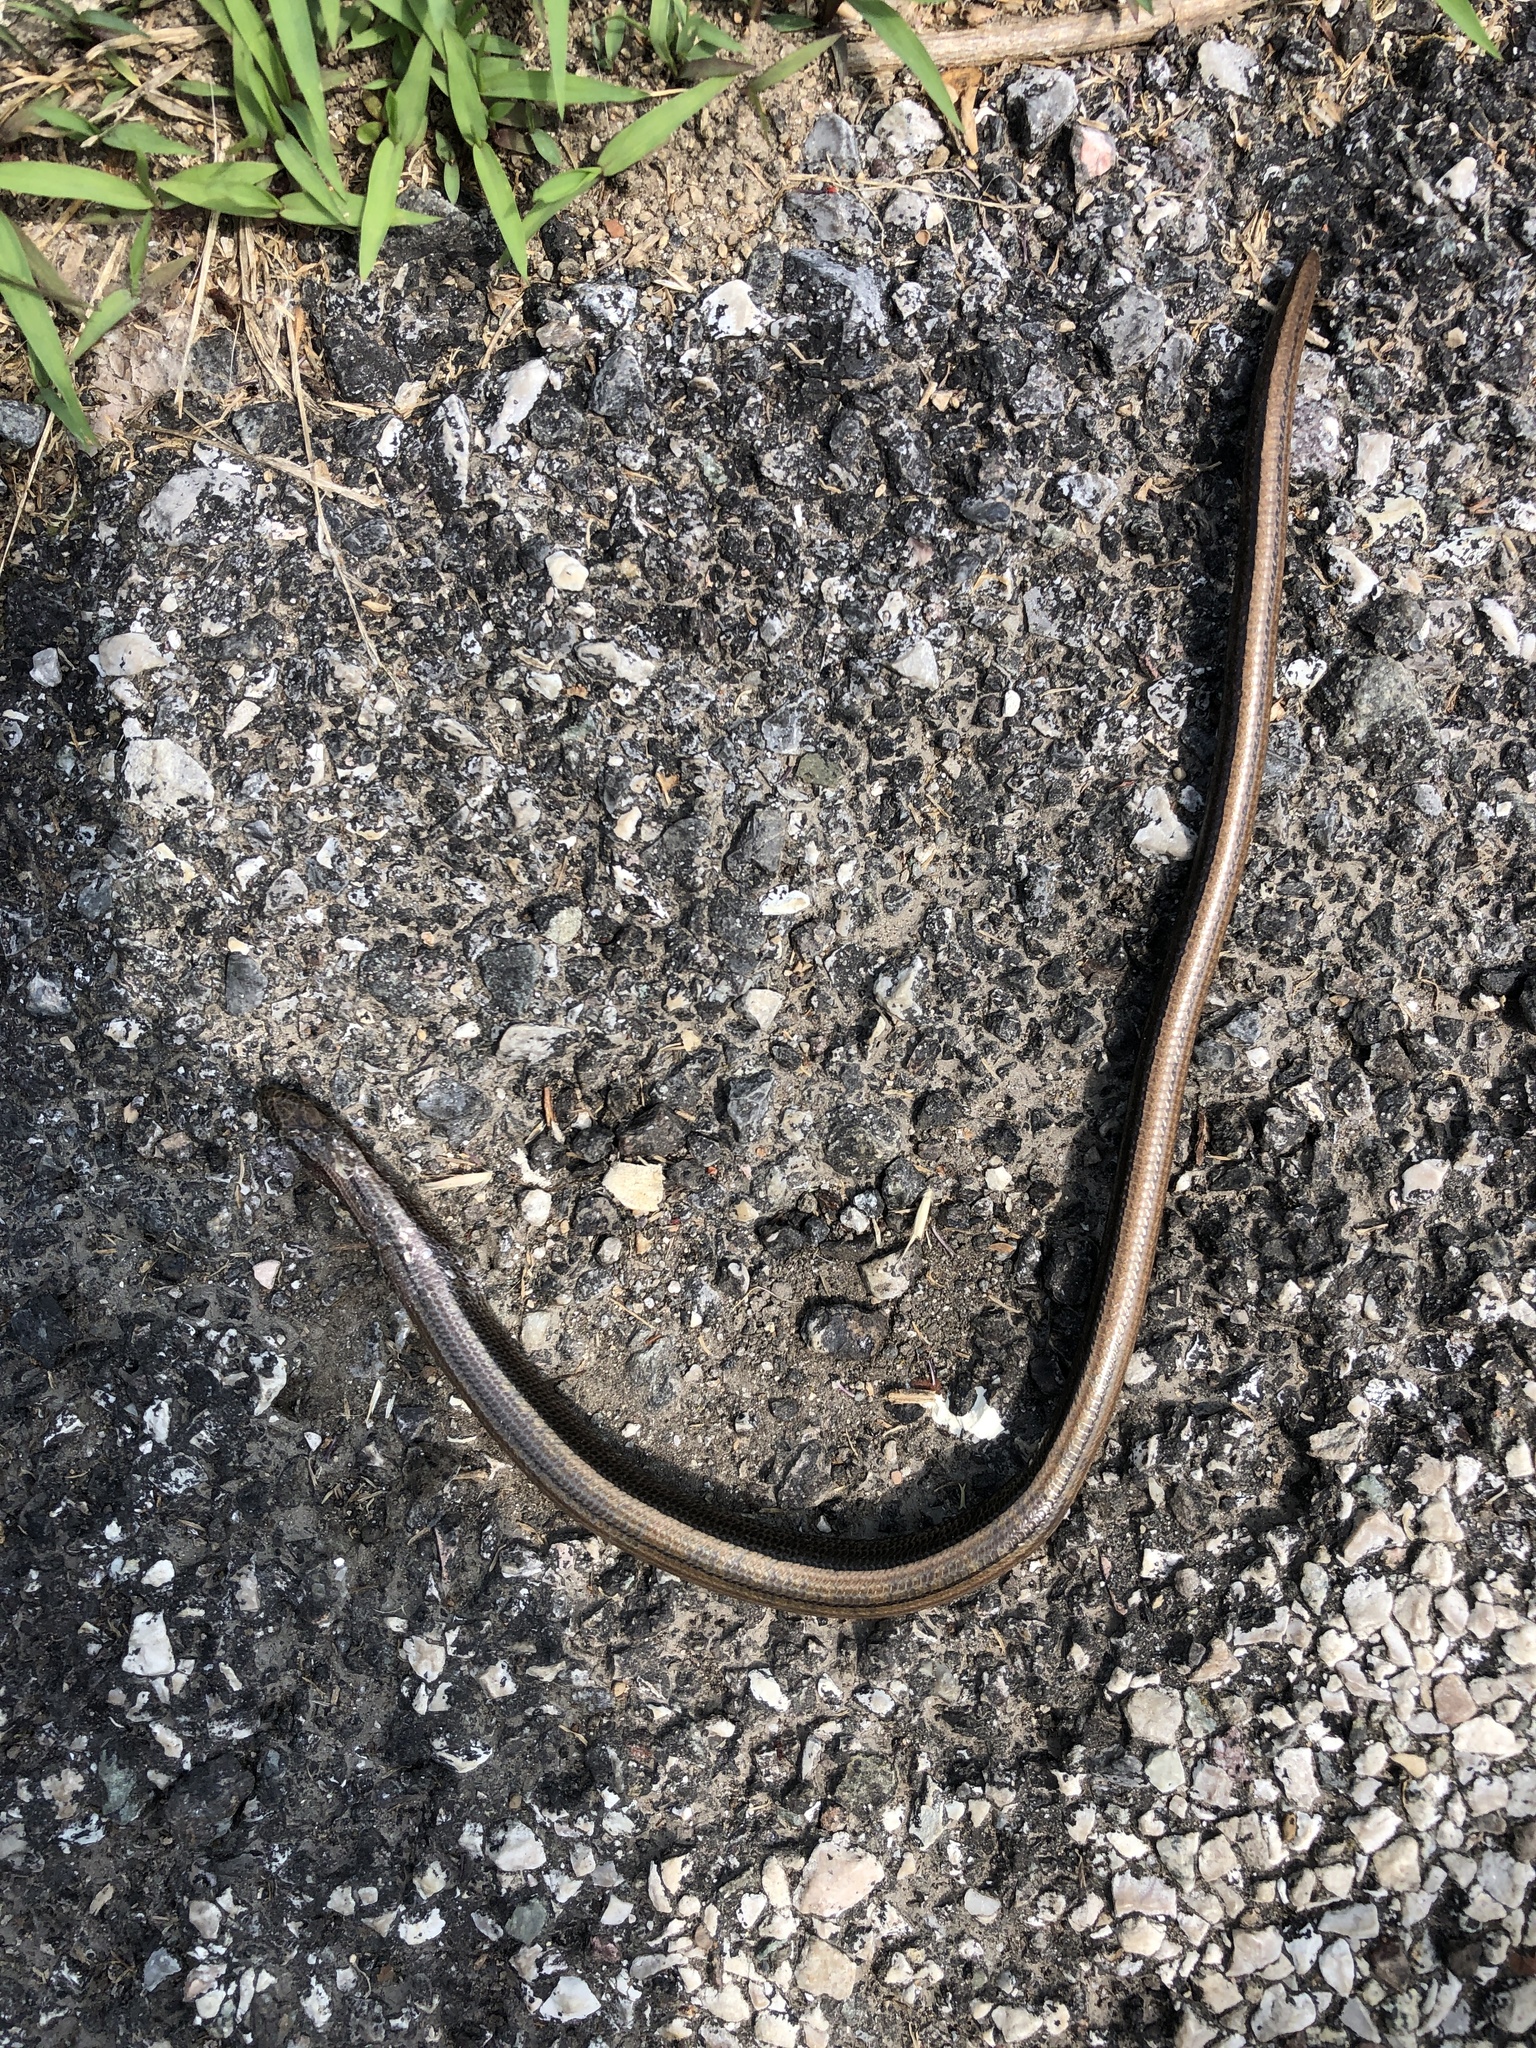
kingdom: Animalia
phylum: Chordata
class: Squamata
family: Anguidae
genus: Anguis
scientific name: Anguis veronensis
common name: Italian slow worm
